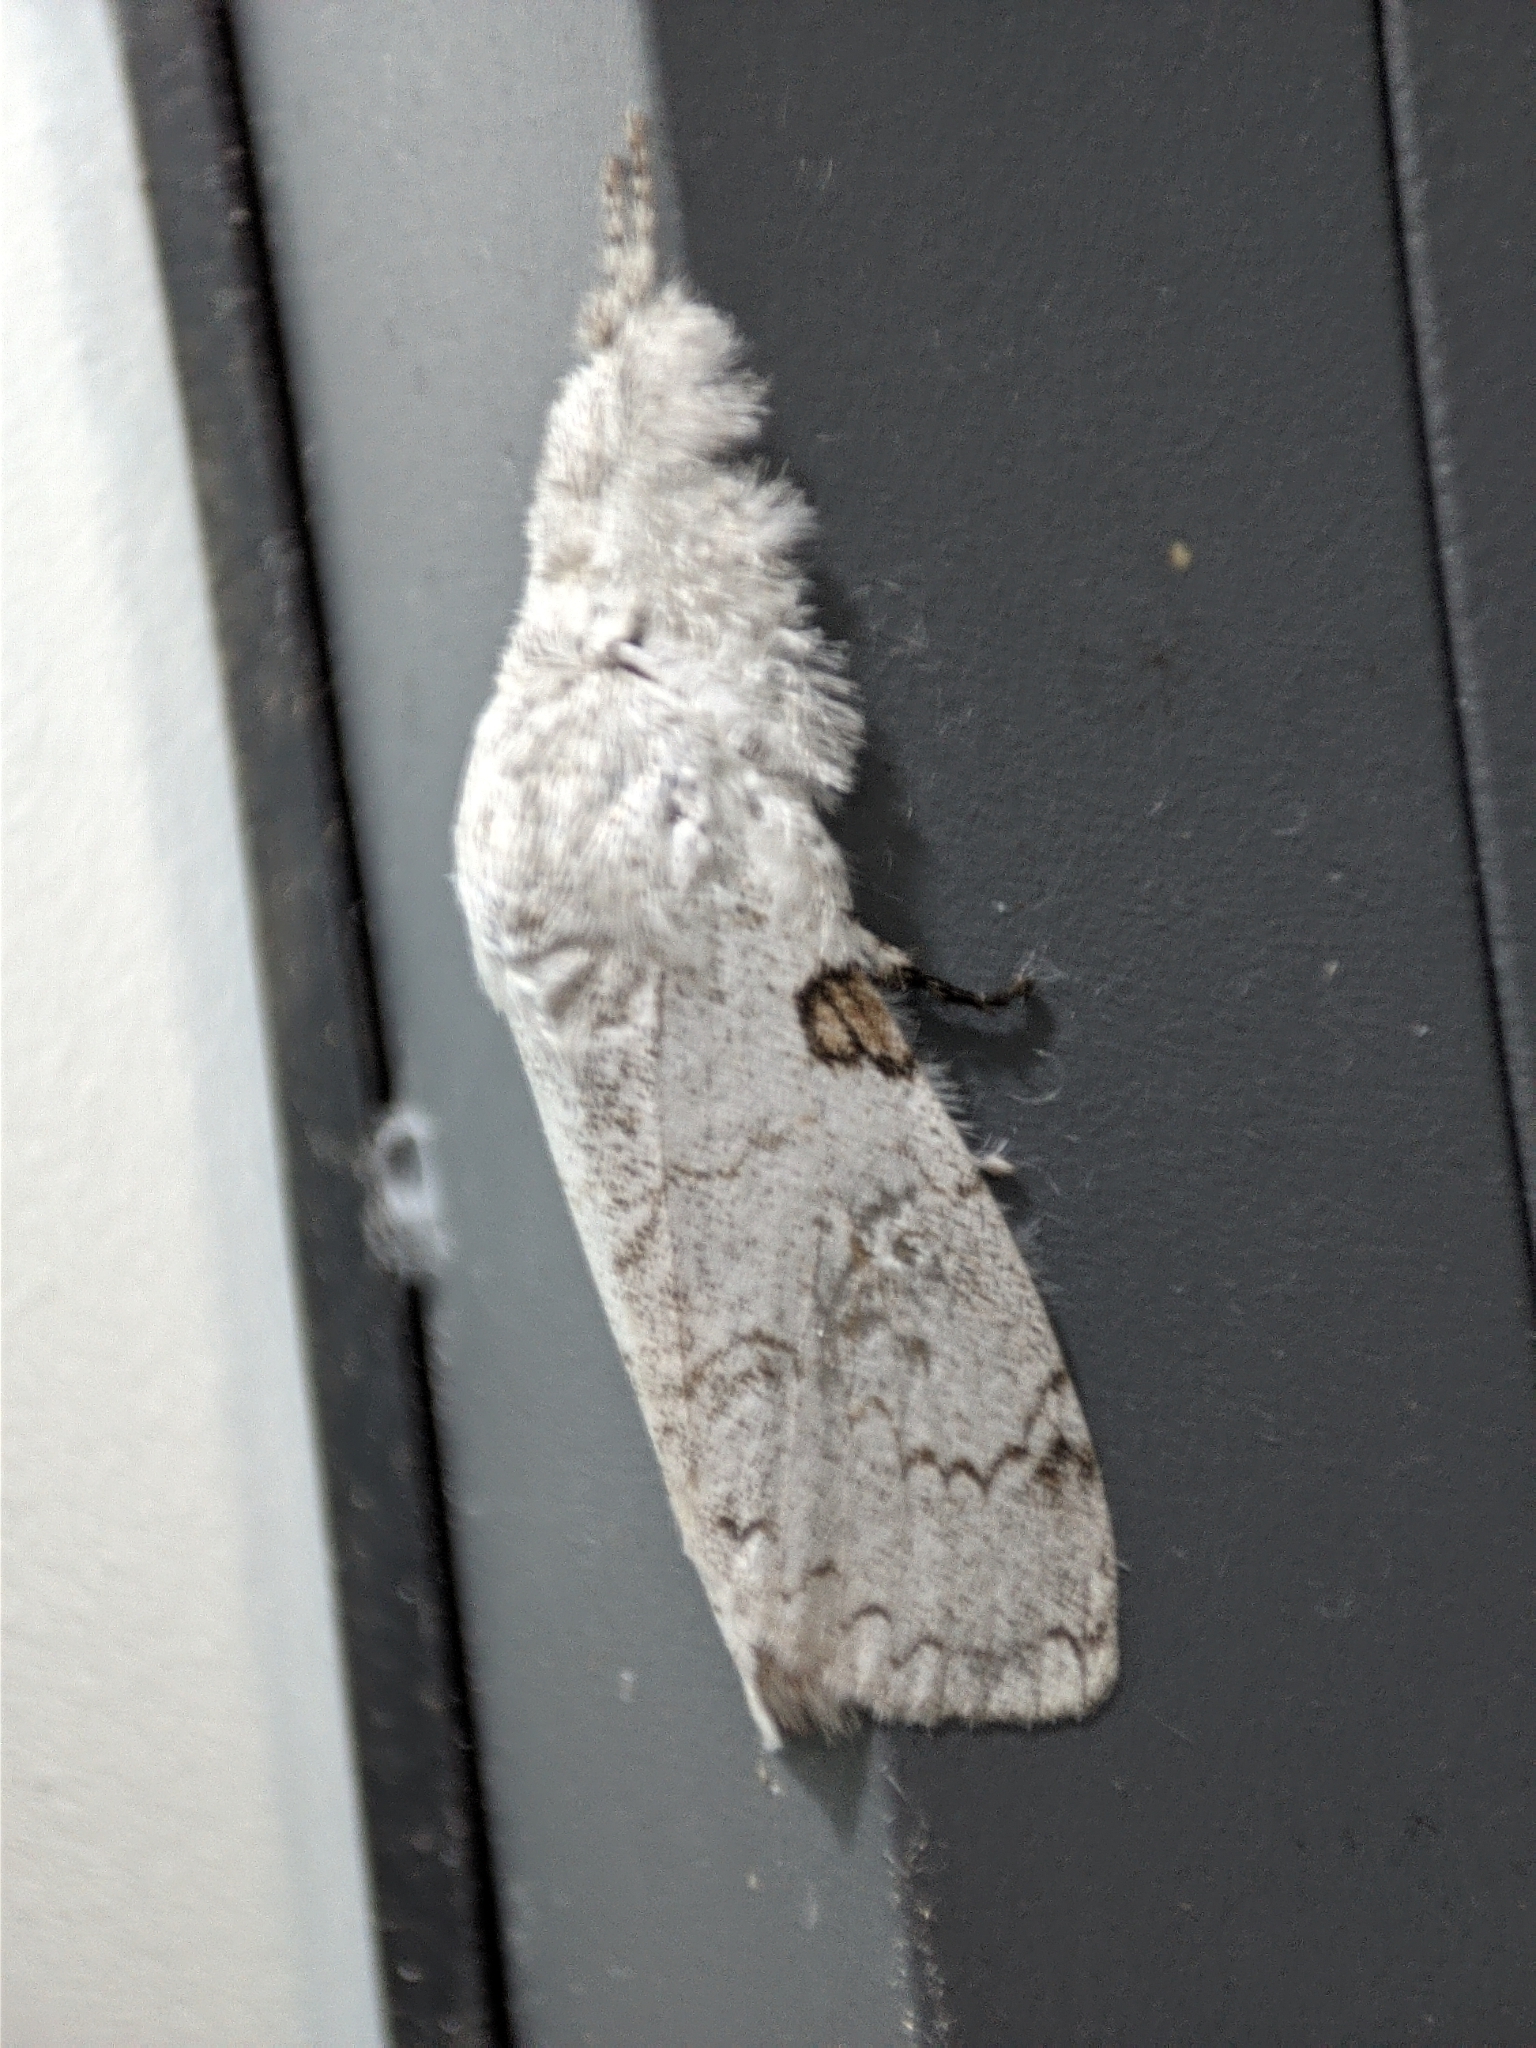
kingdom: Animalia
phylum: Arthropoda
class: Insecta
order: Lepidoptera
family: Erebidae
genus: Dasychira
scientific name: Dasychira postfusca
